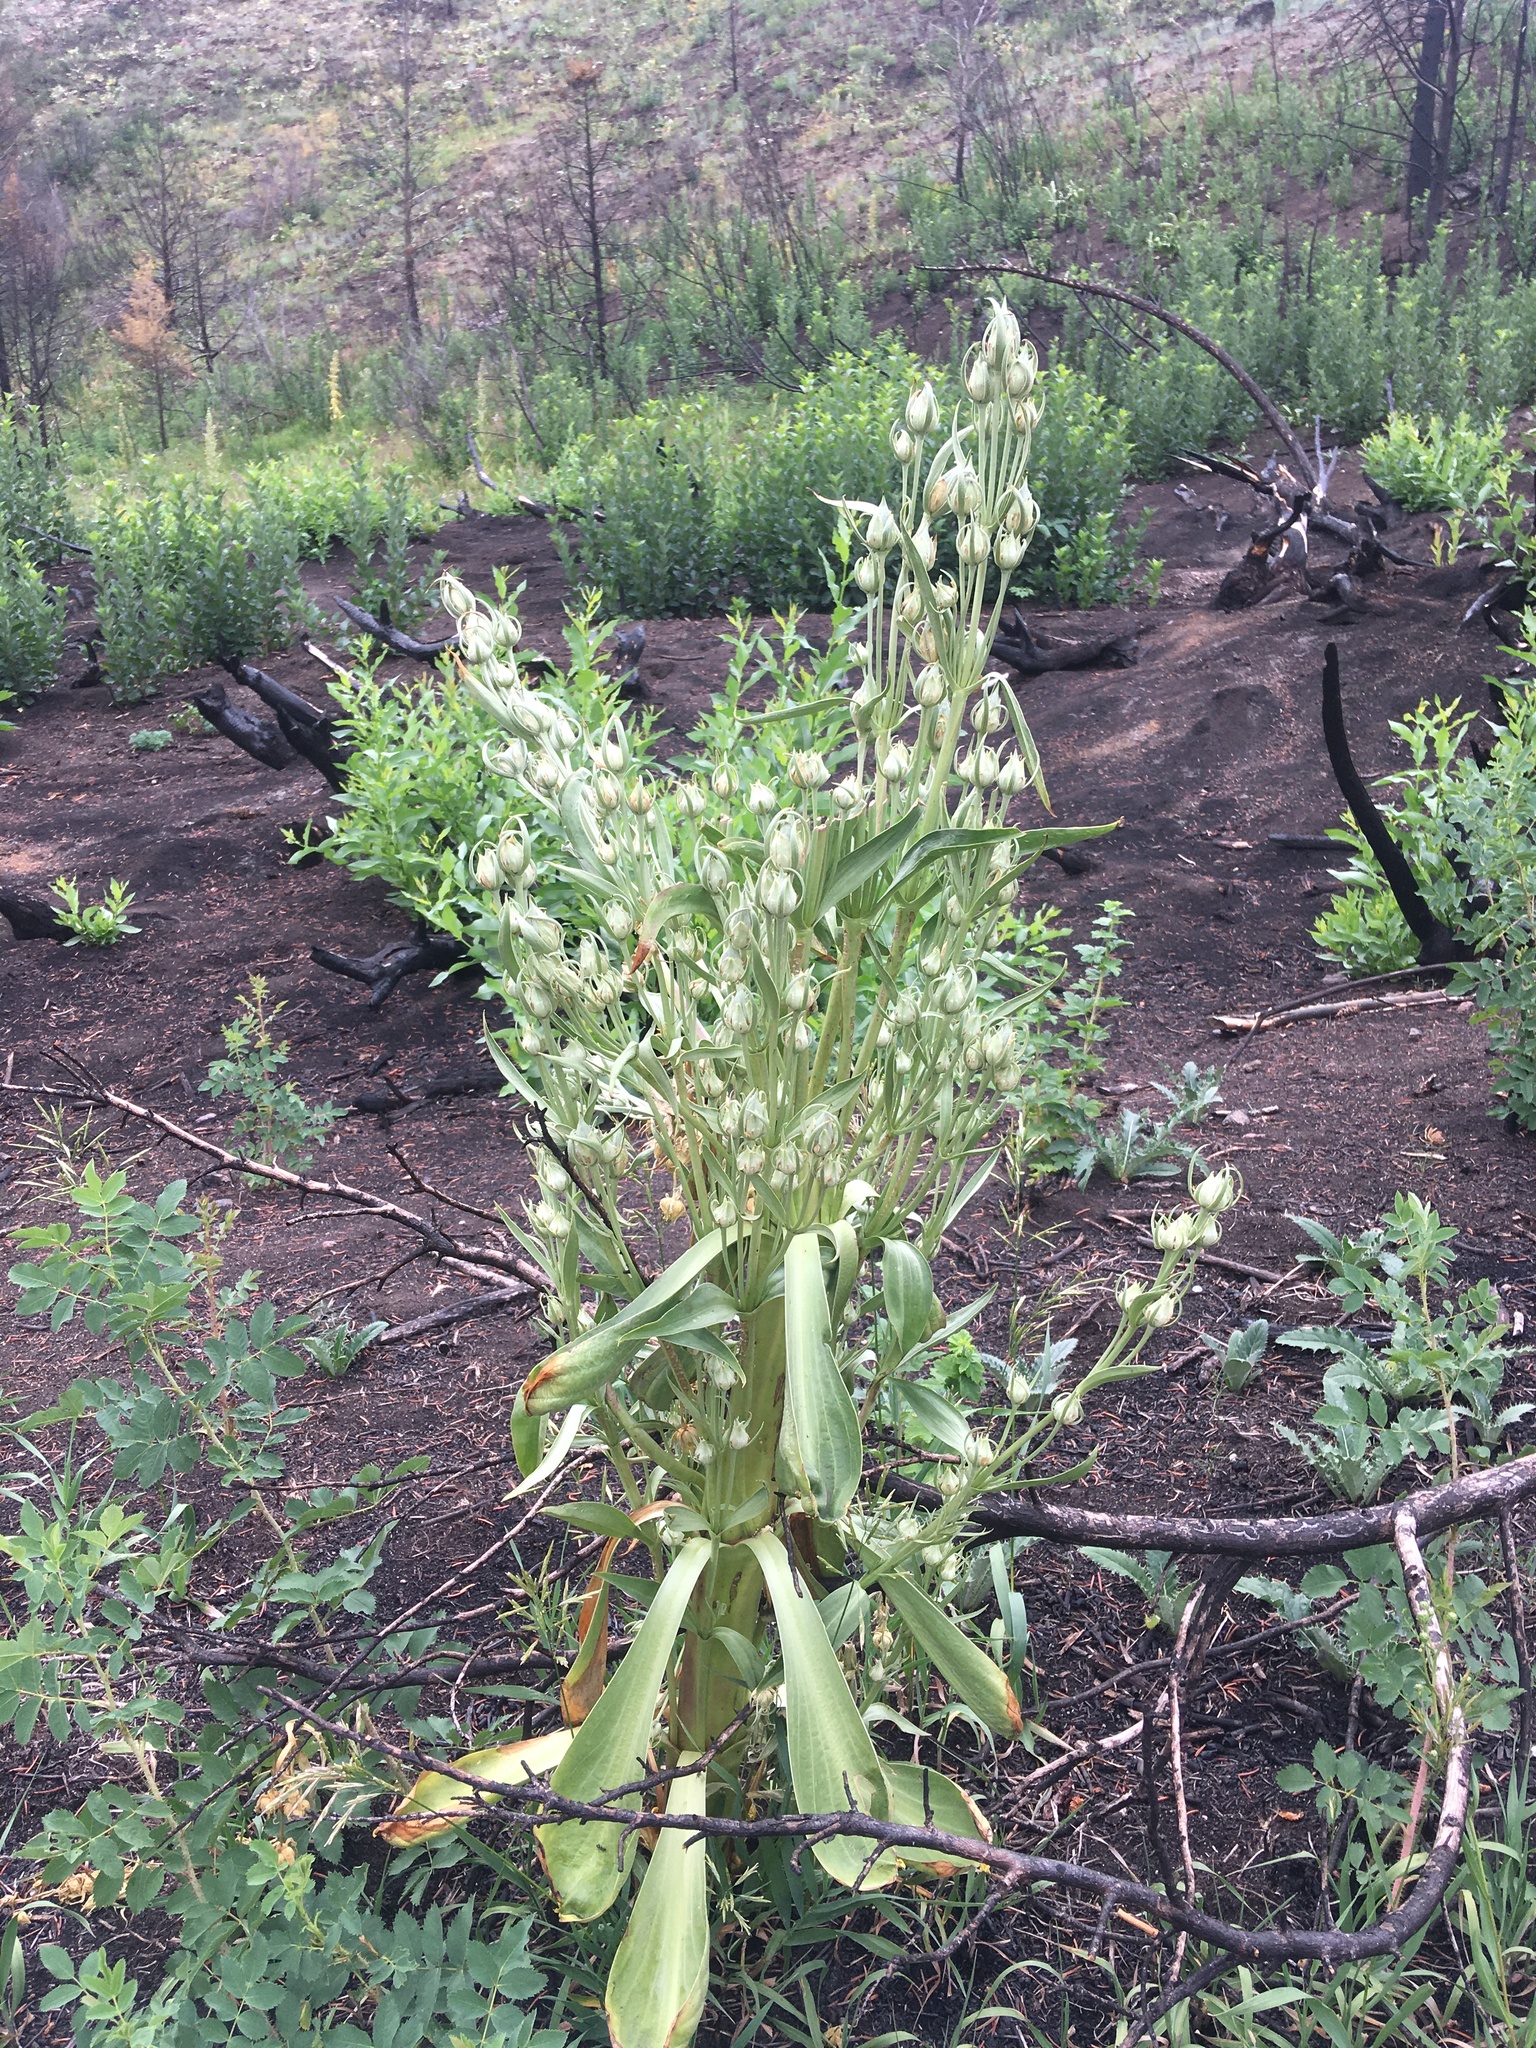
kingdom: Plantae
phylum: Tracheophyta
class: Magnoliopsida
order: Gentianales
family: Gentianaceae
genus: Frasera
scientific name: Frasera speciosa
